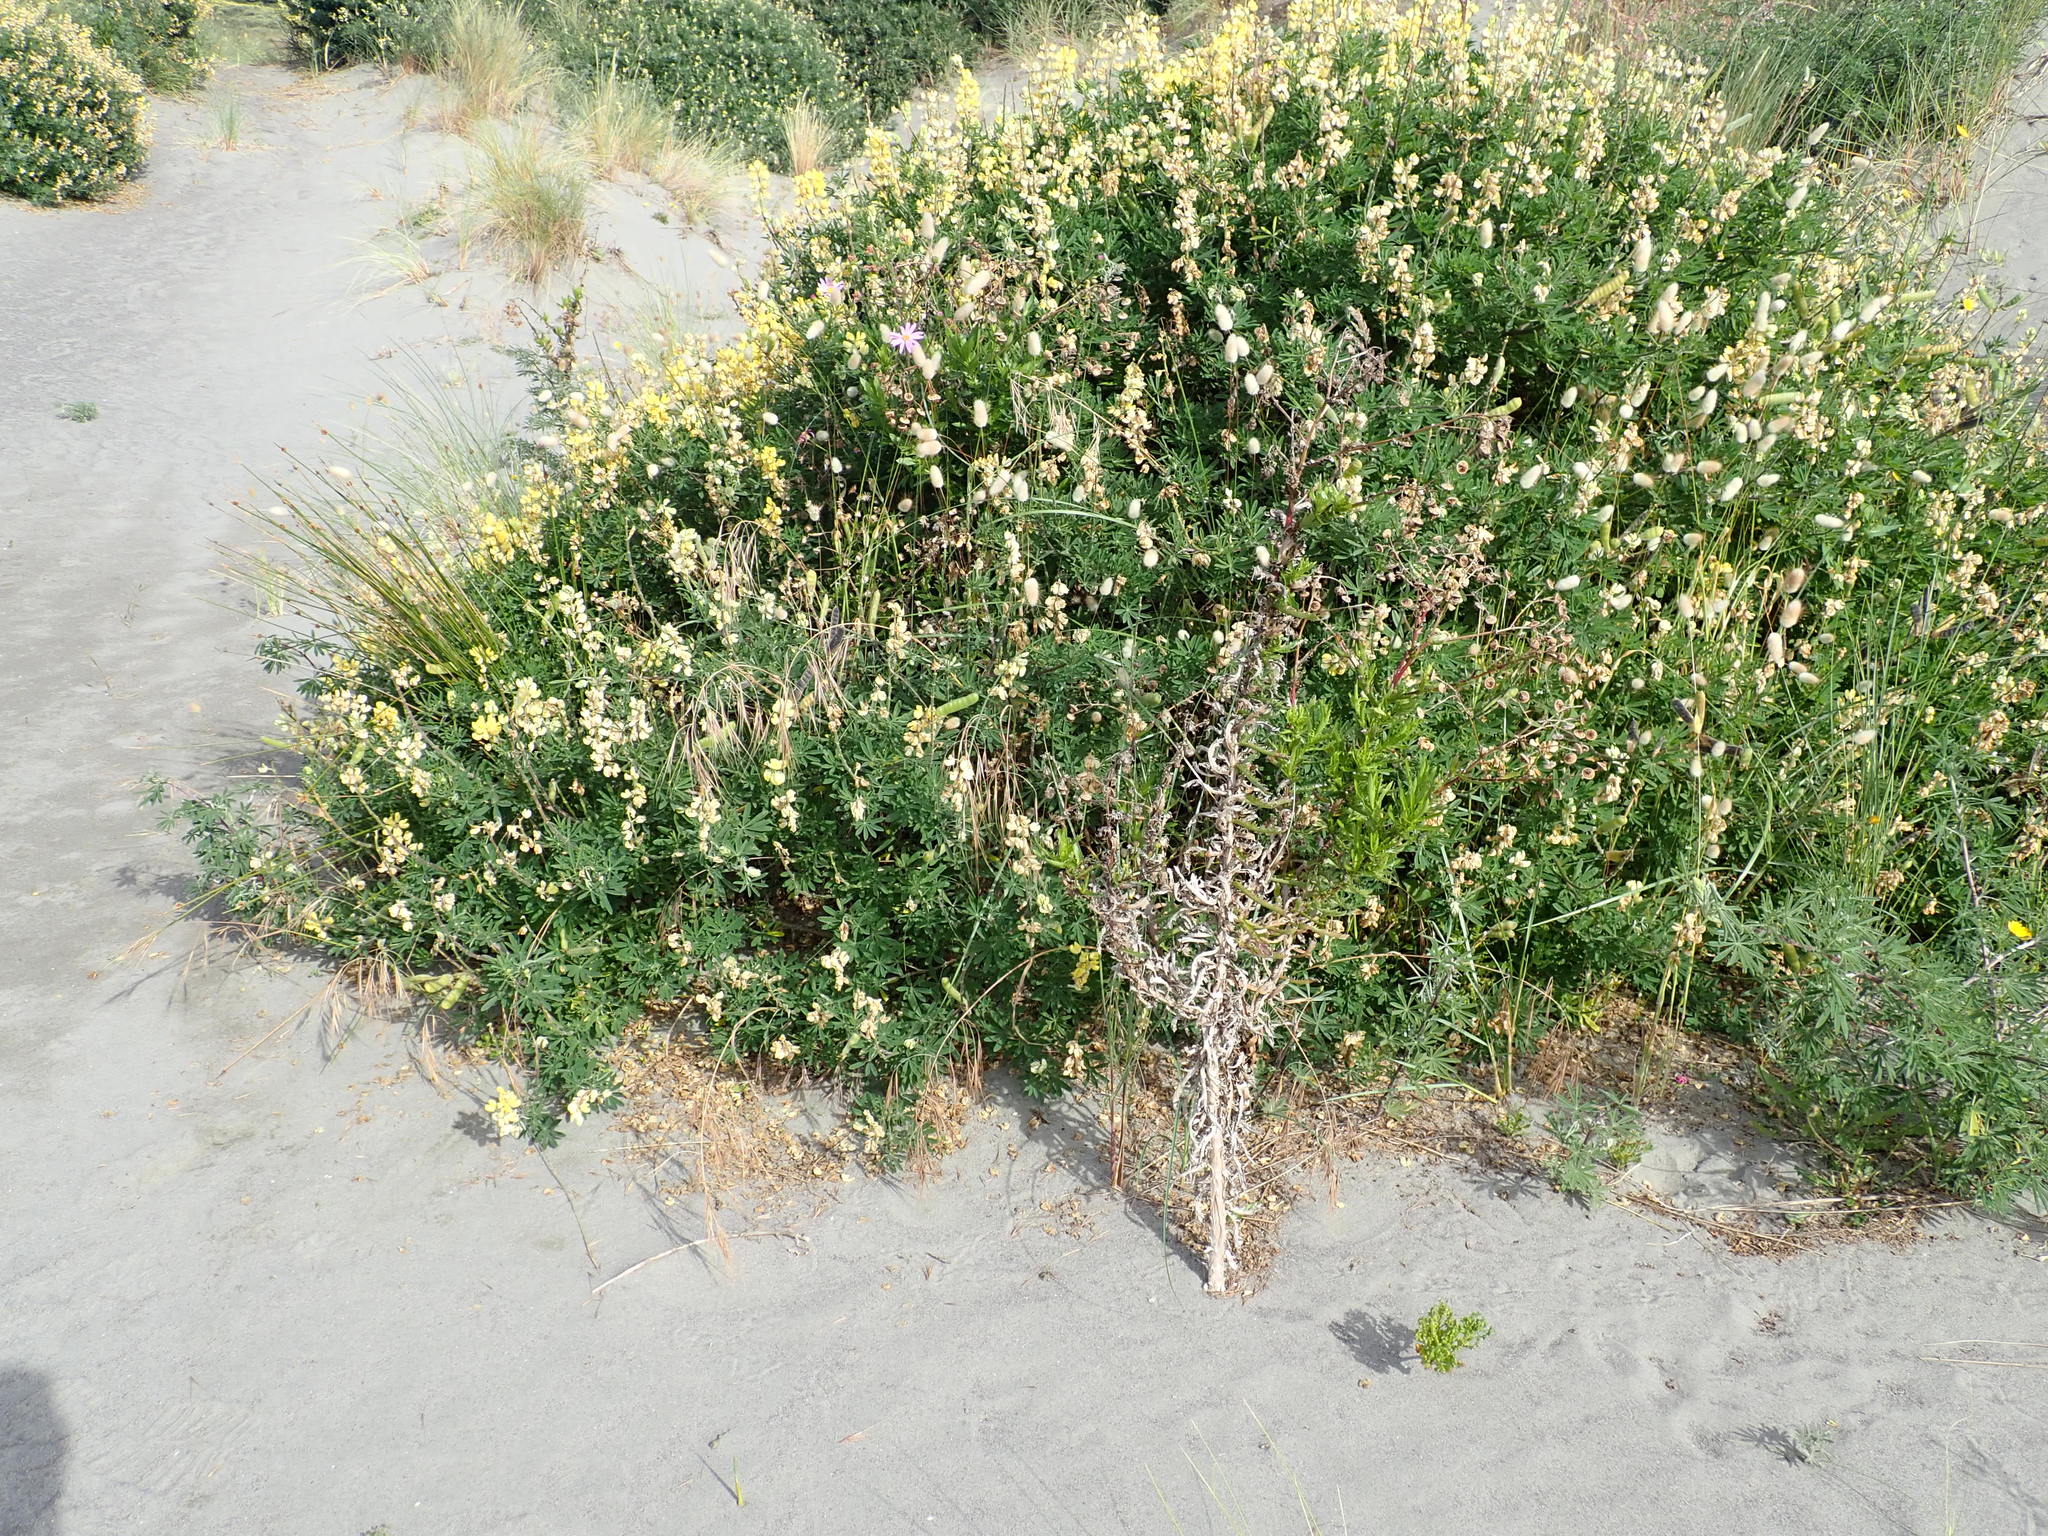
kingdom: Plantae
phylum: Tracheophyta
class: Magnoliopsida
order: Asterales
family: Asteraceae
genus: Senecio
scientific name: Senecio glastifolius
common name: Woad-leaved ragwort
